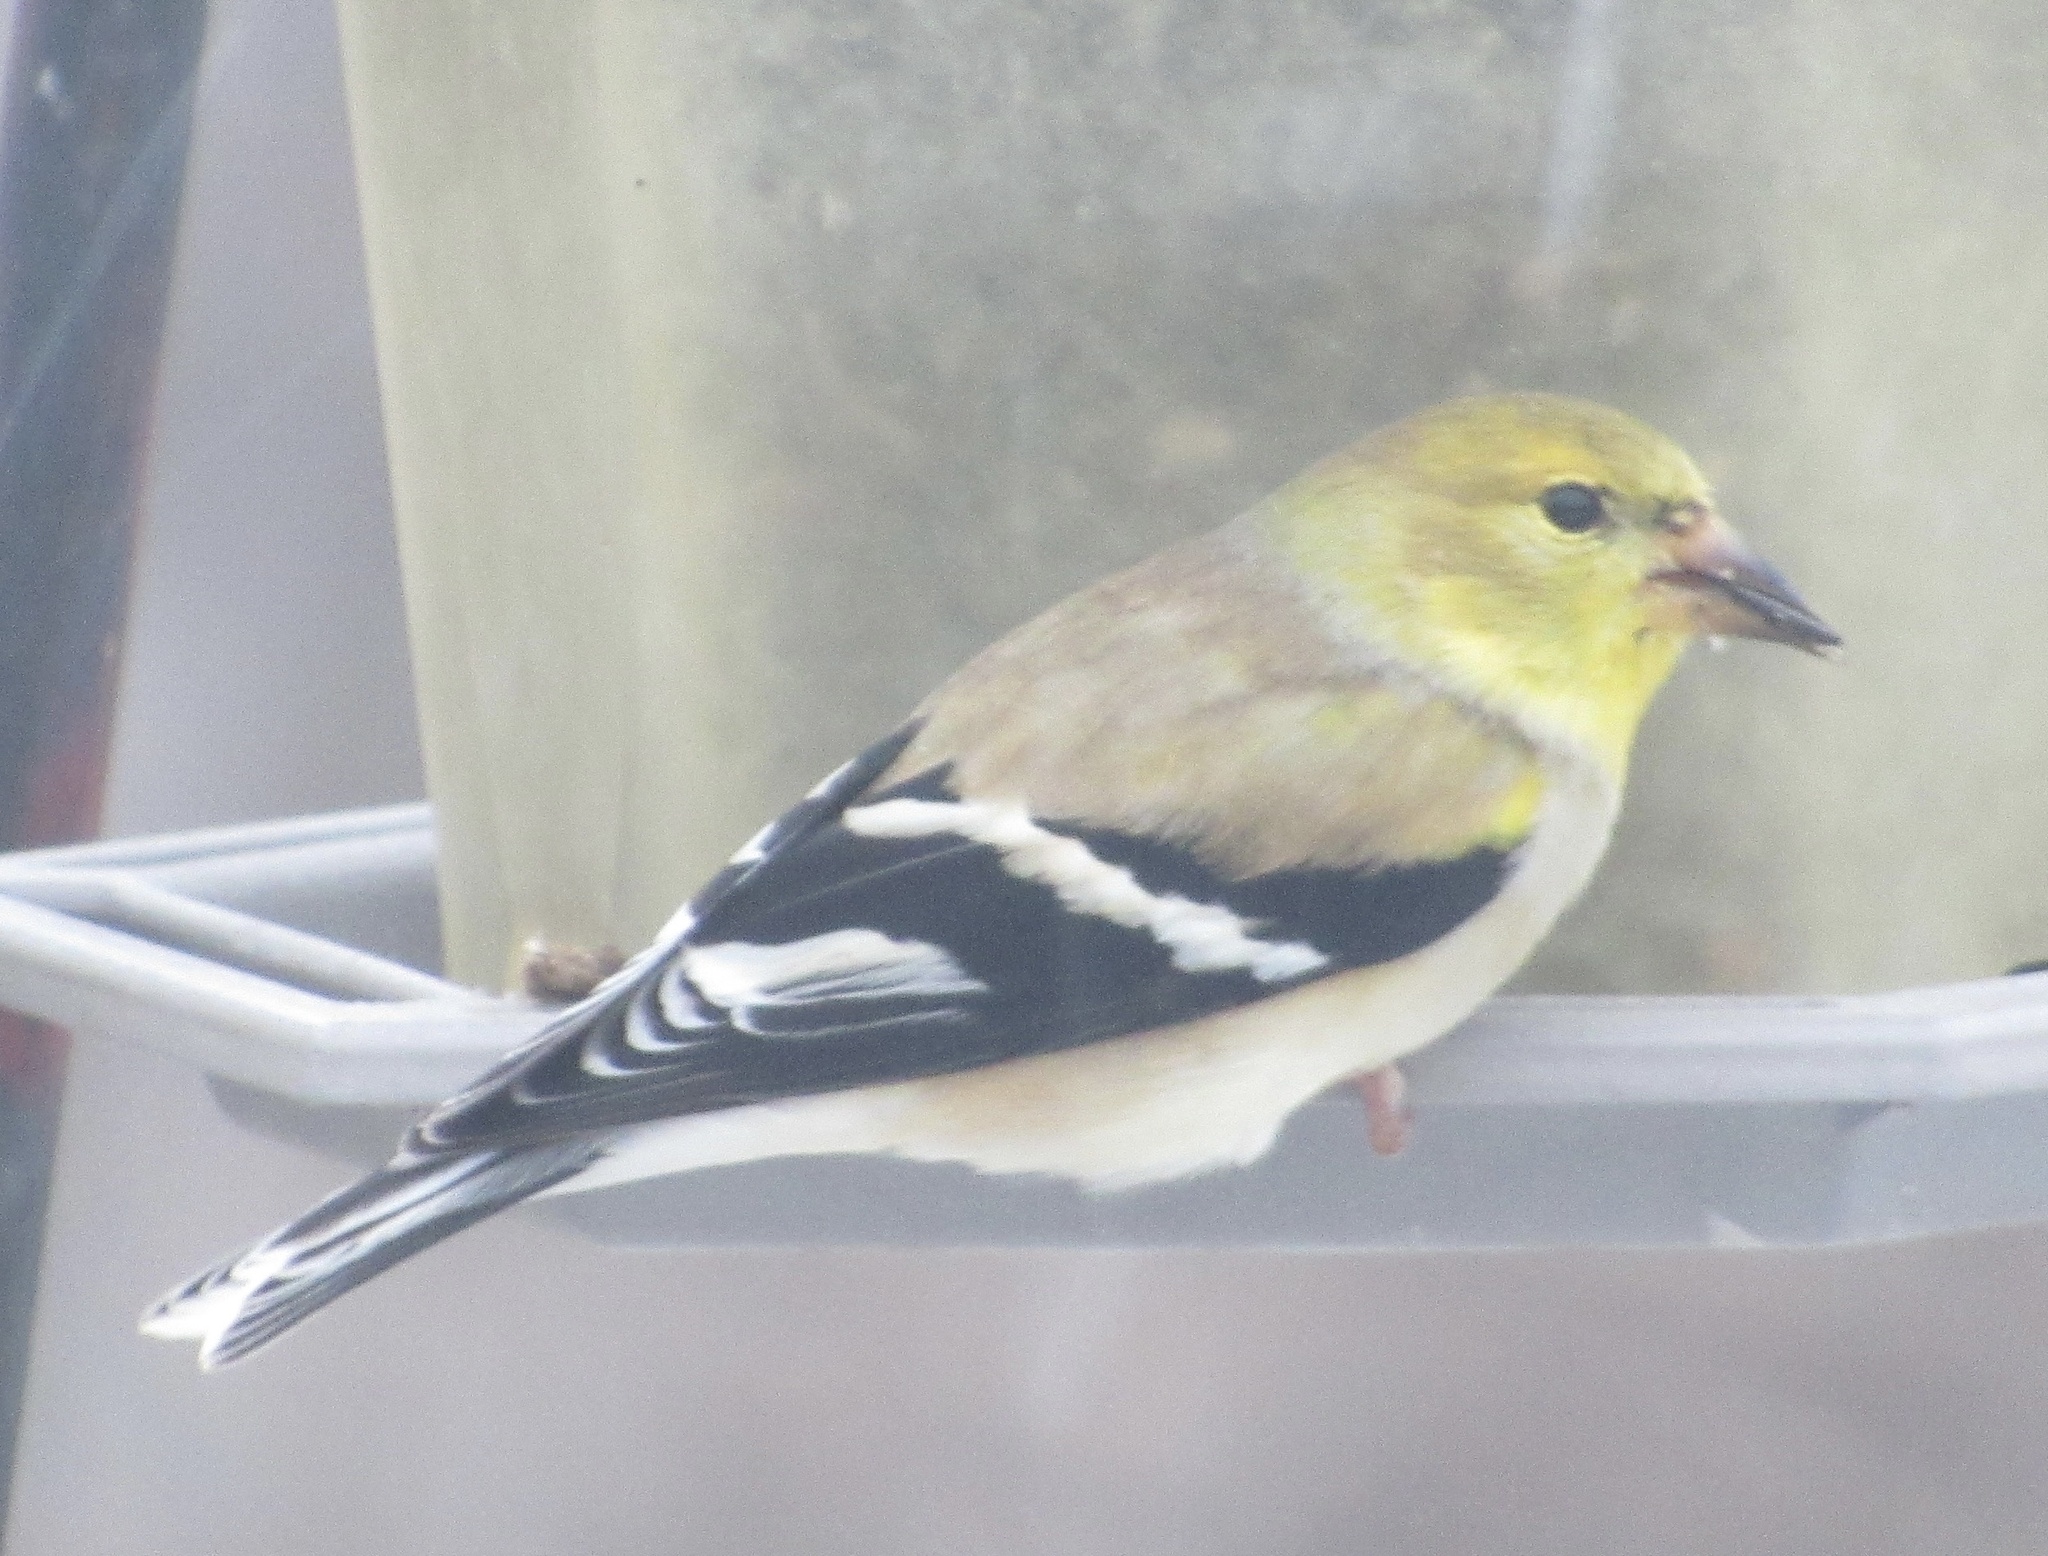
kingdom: Animalia
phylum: Chordata
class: Aves
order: Passeriformes
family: Fringillidae
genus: Spinus
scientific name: Spinus tristis
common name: American goldfinch
